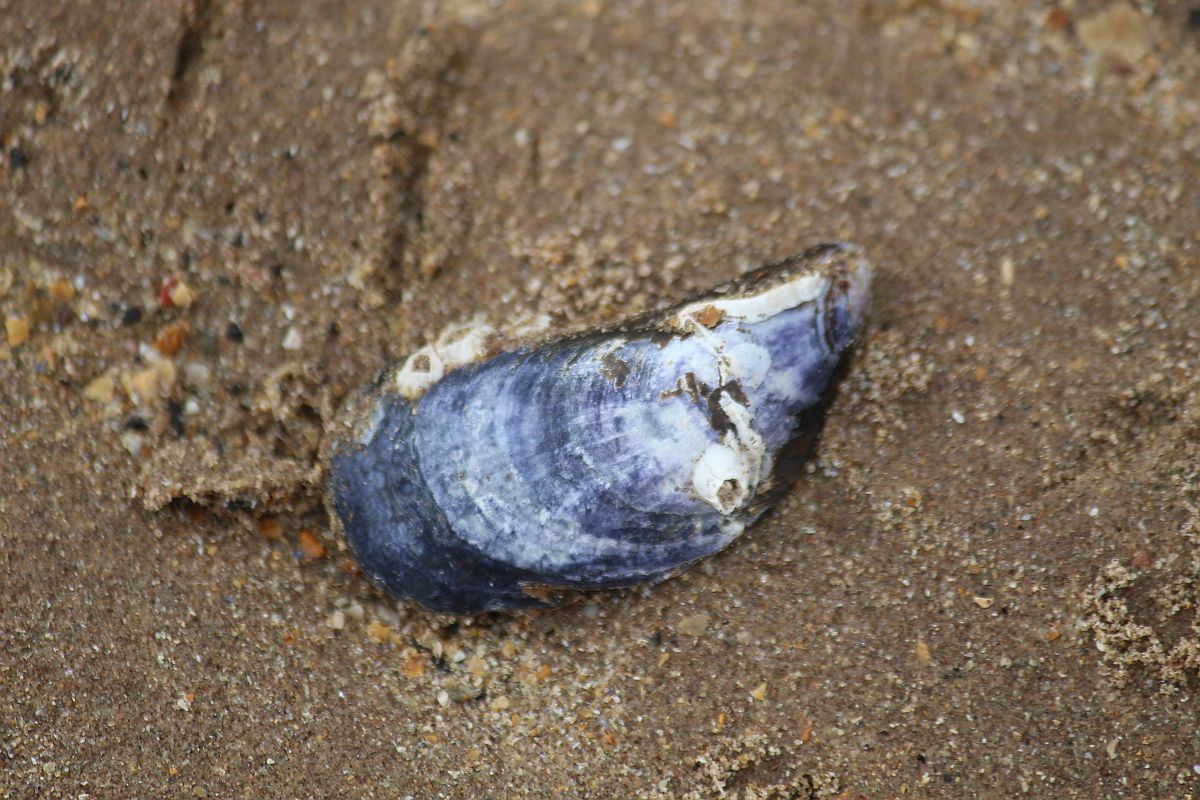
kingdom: Animalia
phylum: Mollusca
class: Bivalvia
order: Mytilida
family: Mytilidae
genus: Mytilus
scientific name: Mytilus edulis
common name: Blue mussel
